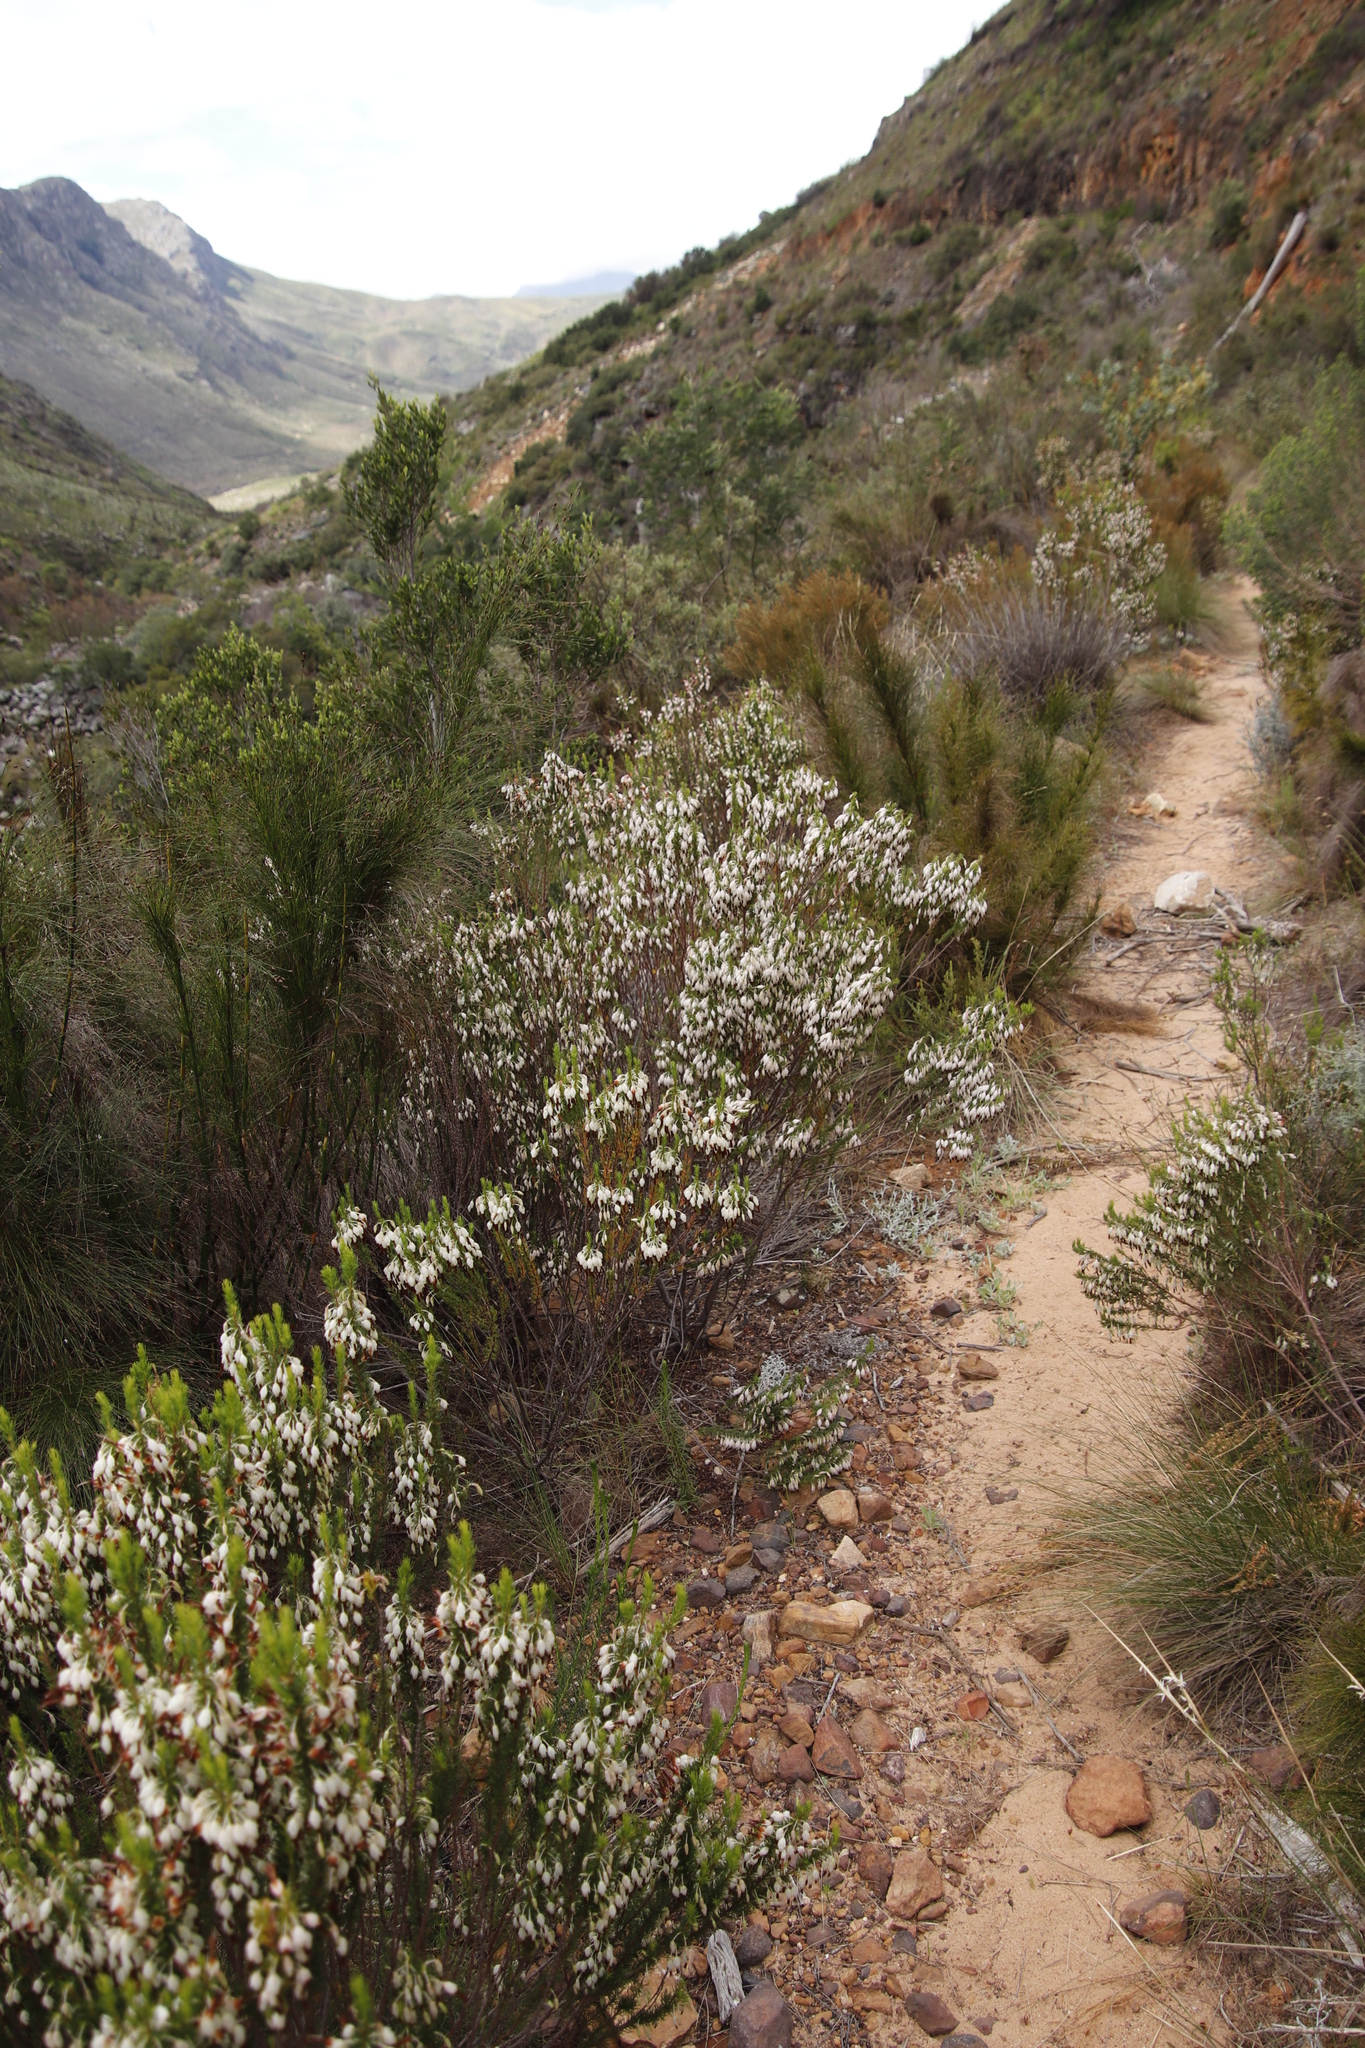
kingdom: Plantae
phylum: Tracheophyta
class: Magnoliopsida
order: Ericales
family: Ericaceae
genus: Erica
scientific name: Erica plukenetii
